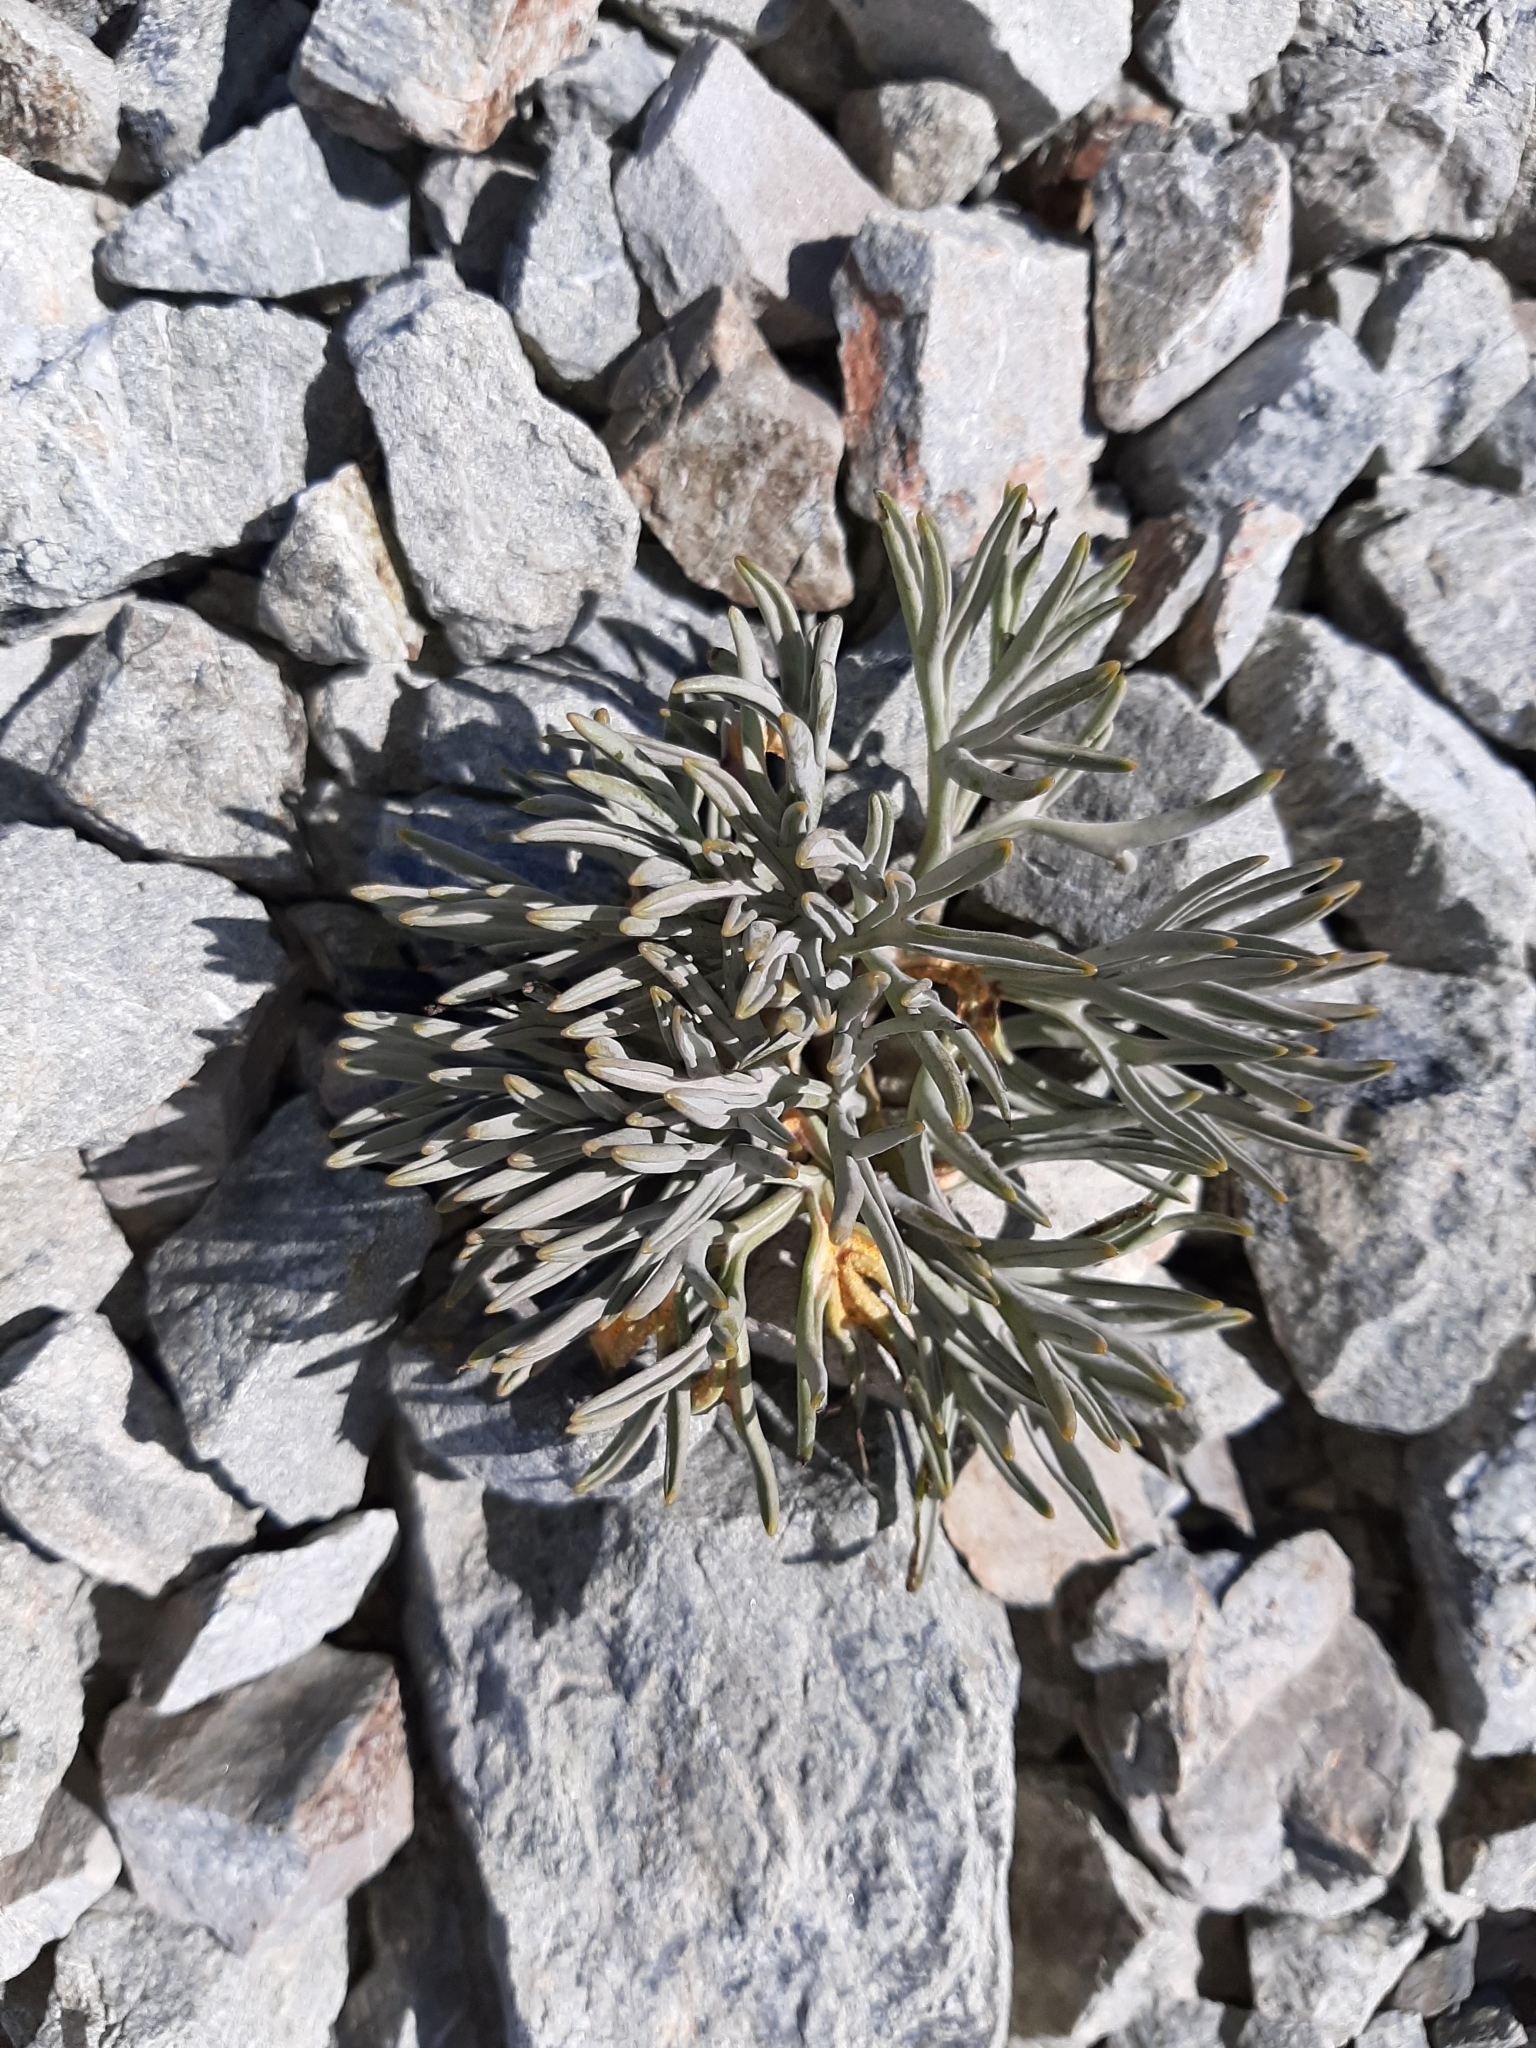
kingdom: Plantae
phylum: Tracheophyta
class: Magnoliopsida
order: Apiales
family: Apiaceae
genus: Lignocarpa
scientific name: Lignocarpa carnosula
